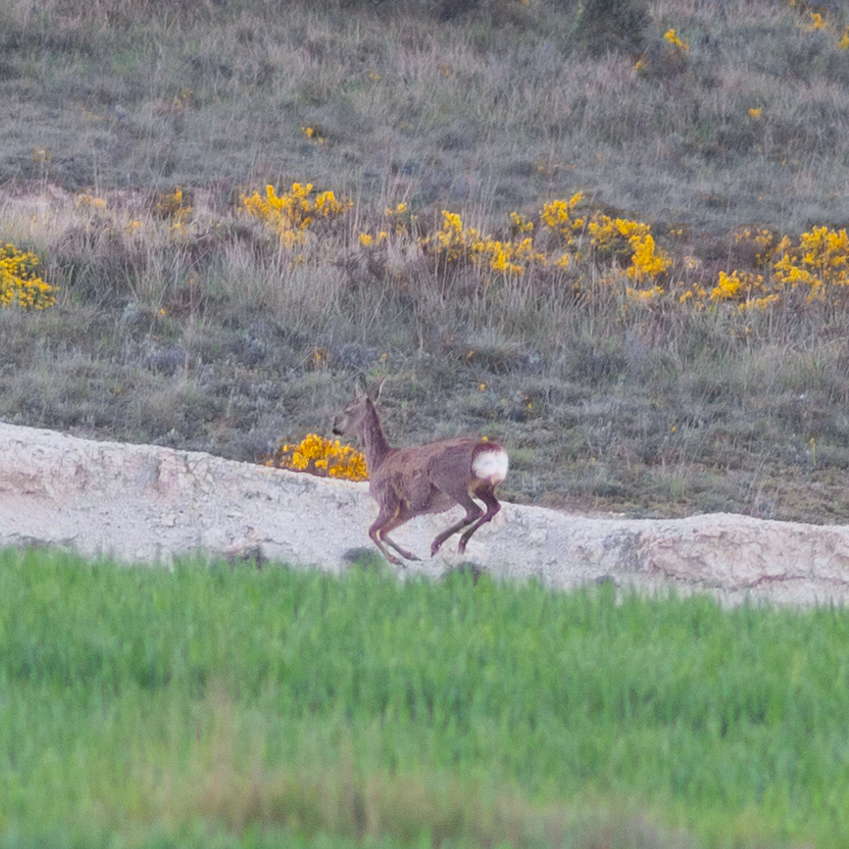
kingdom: Animalia
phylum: Chordata
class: Mammalia
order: Artiodactyla
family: Cervidae
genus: Capreolus
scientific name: Capreolus capreolus
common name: Western roe deer
